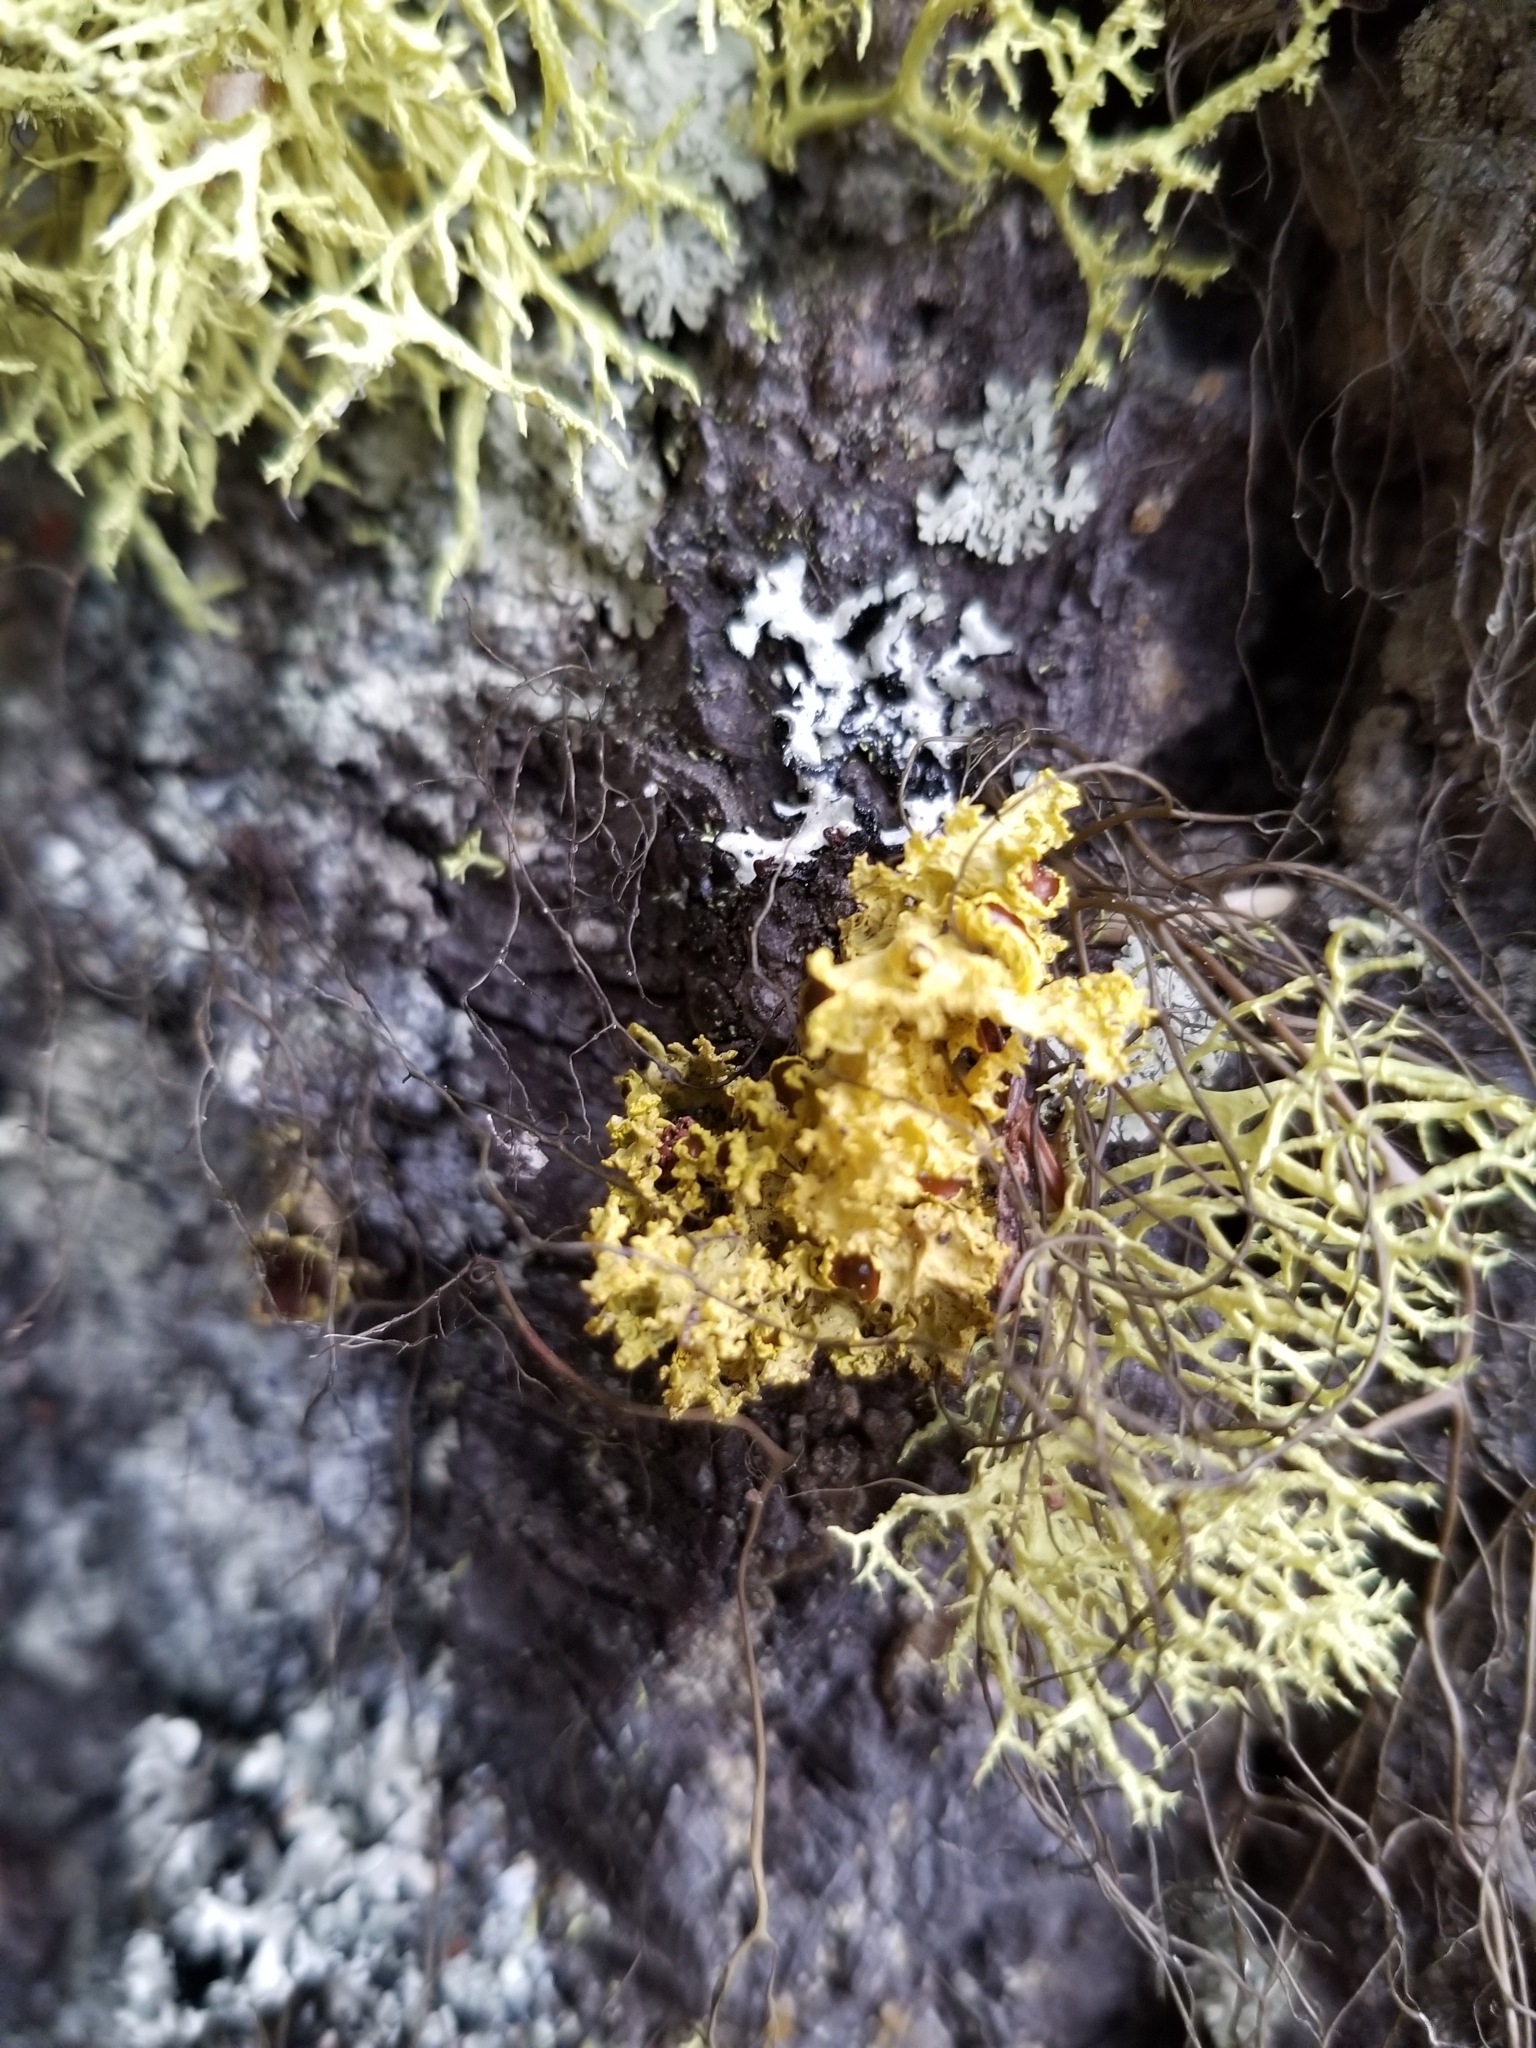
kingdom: Fungi
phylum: Ascomycota
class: Lecanoromycetes
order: Lecanorales
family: Parmeliaceae
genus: Vulpicida
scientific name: Vulpicida canadensis
